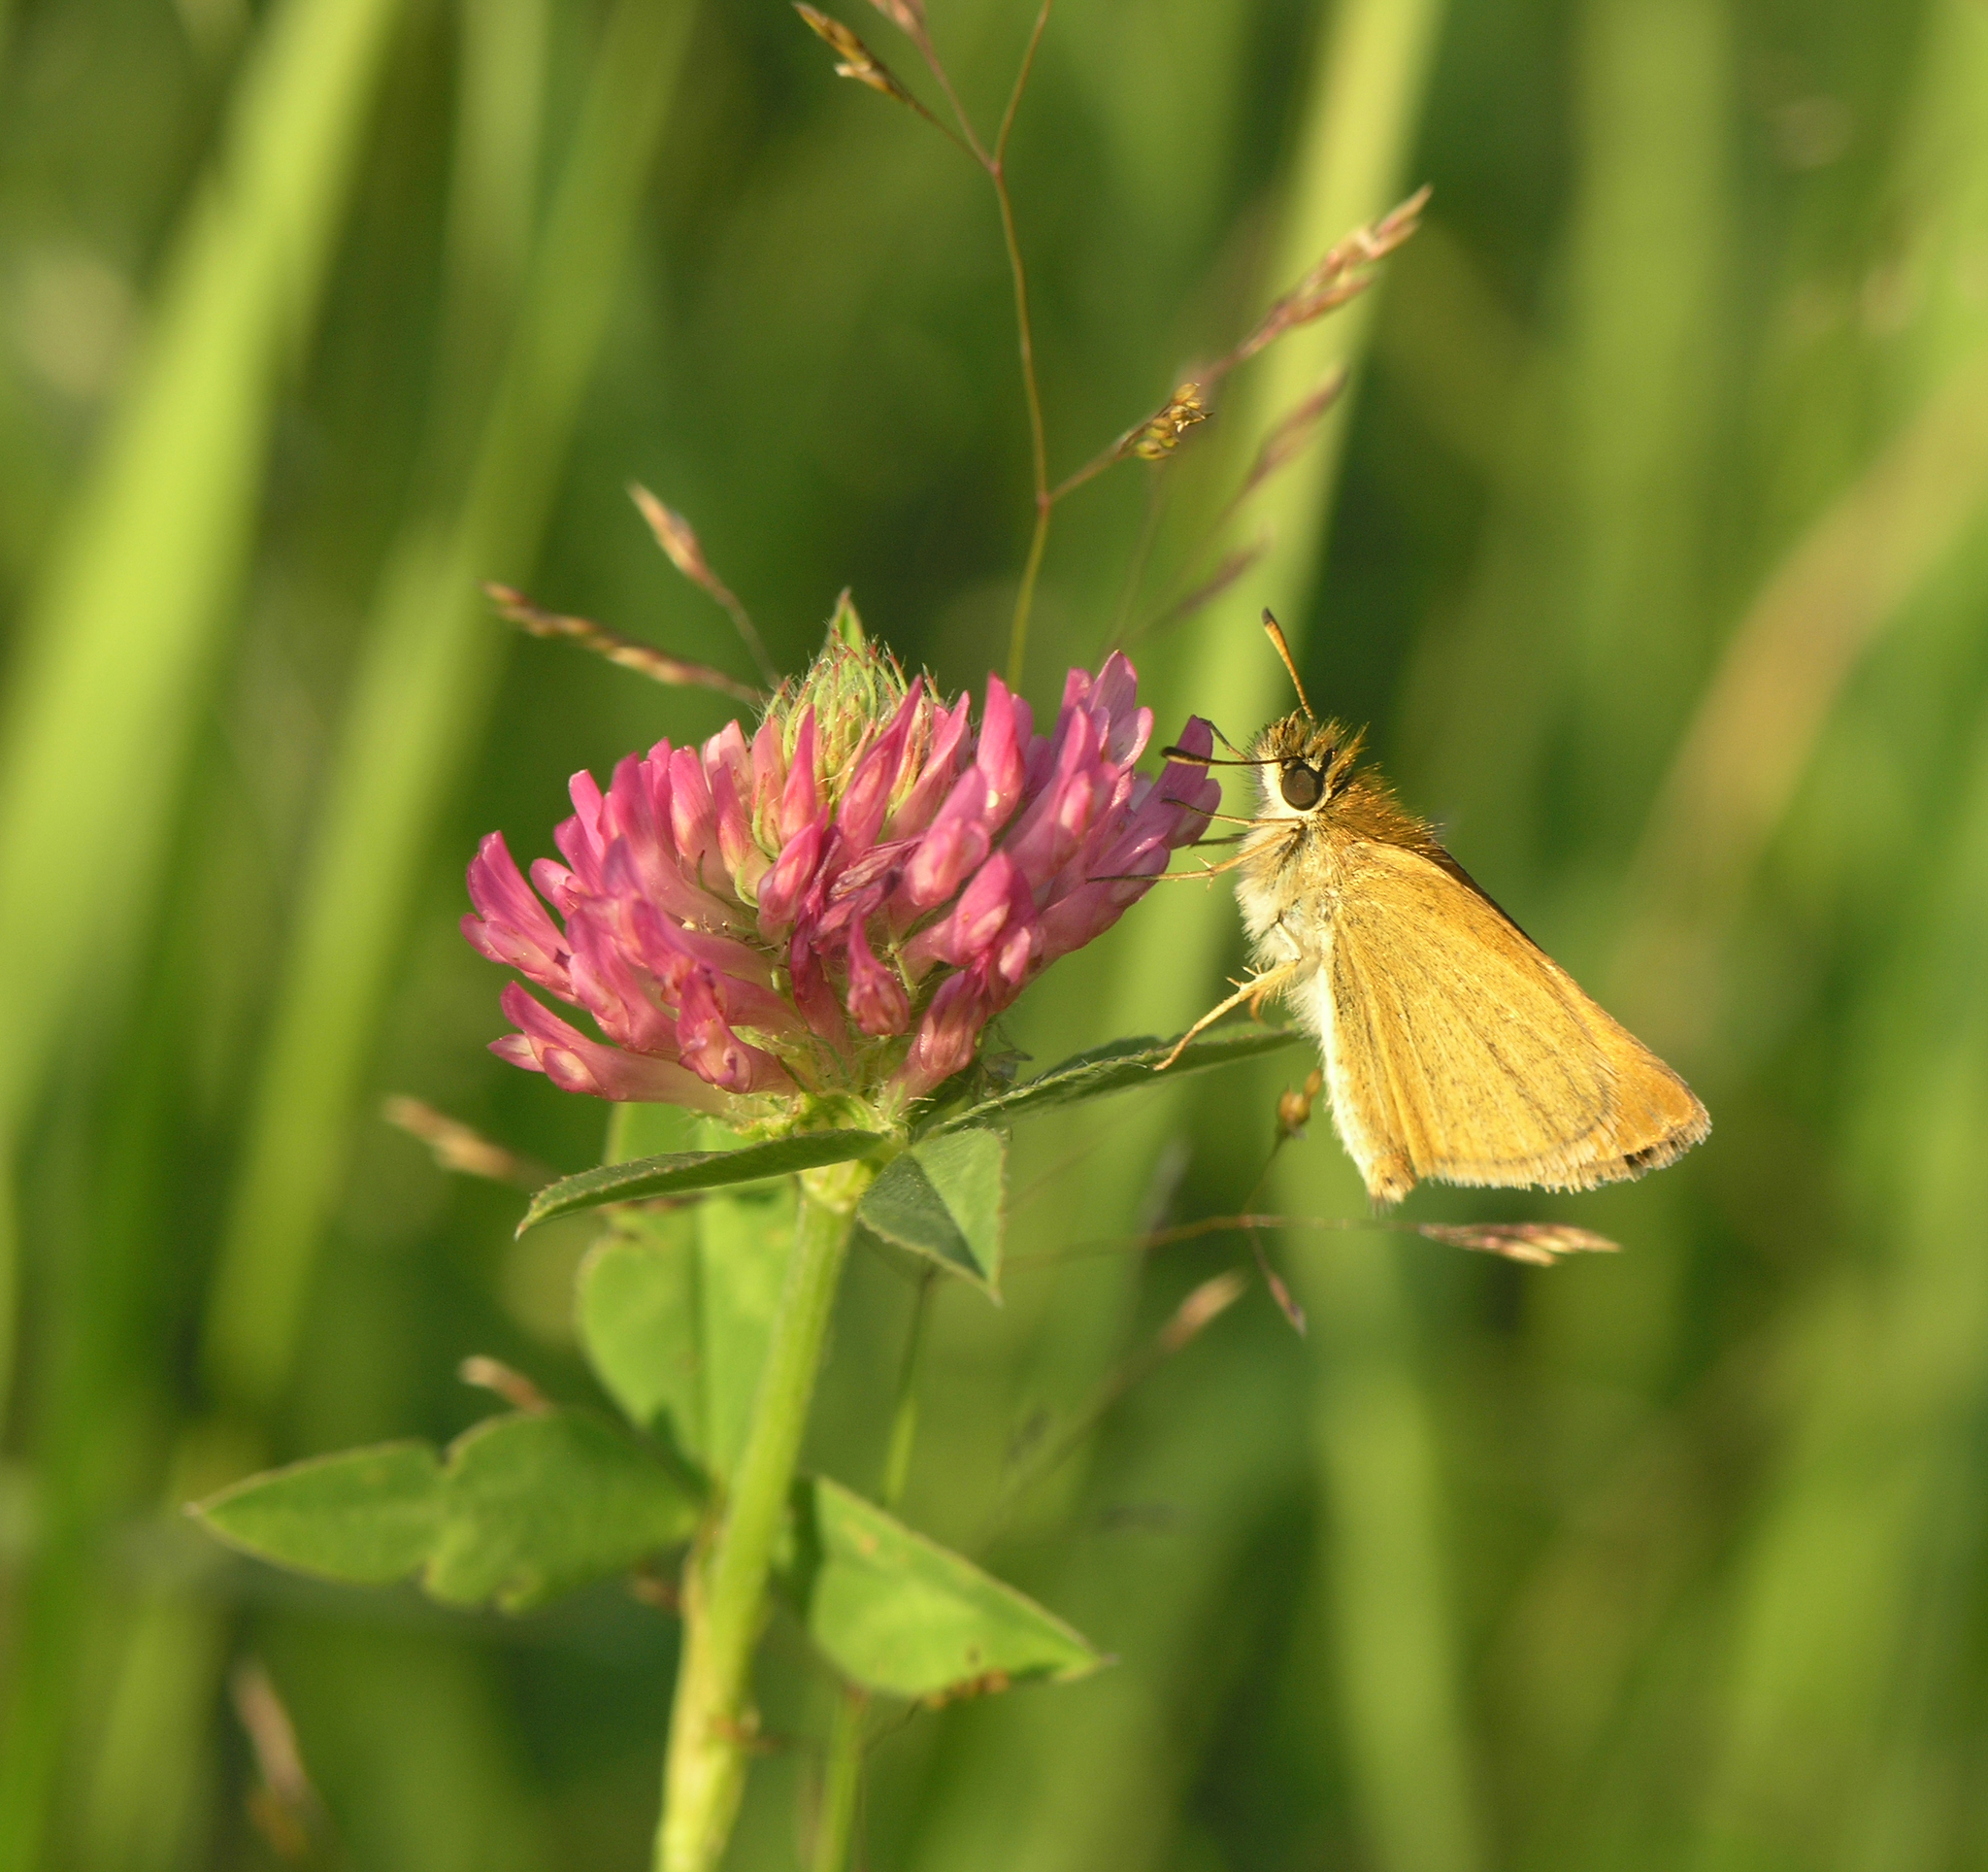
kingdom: Plantae
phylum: Tracheophyta
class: Magnoliopsida
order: Fabales
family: Fabaceae
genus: Trifolium
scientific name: Trifolium pratense
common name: Red clover
